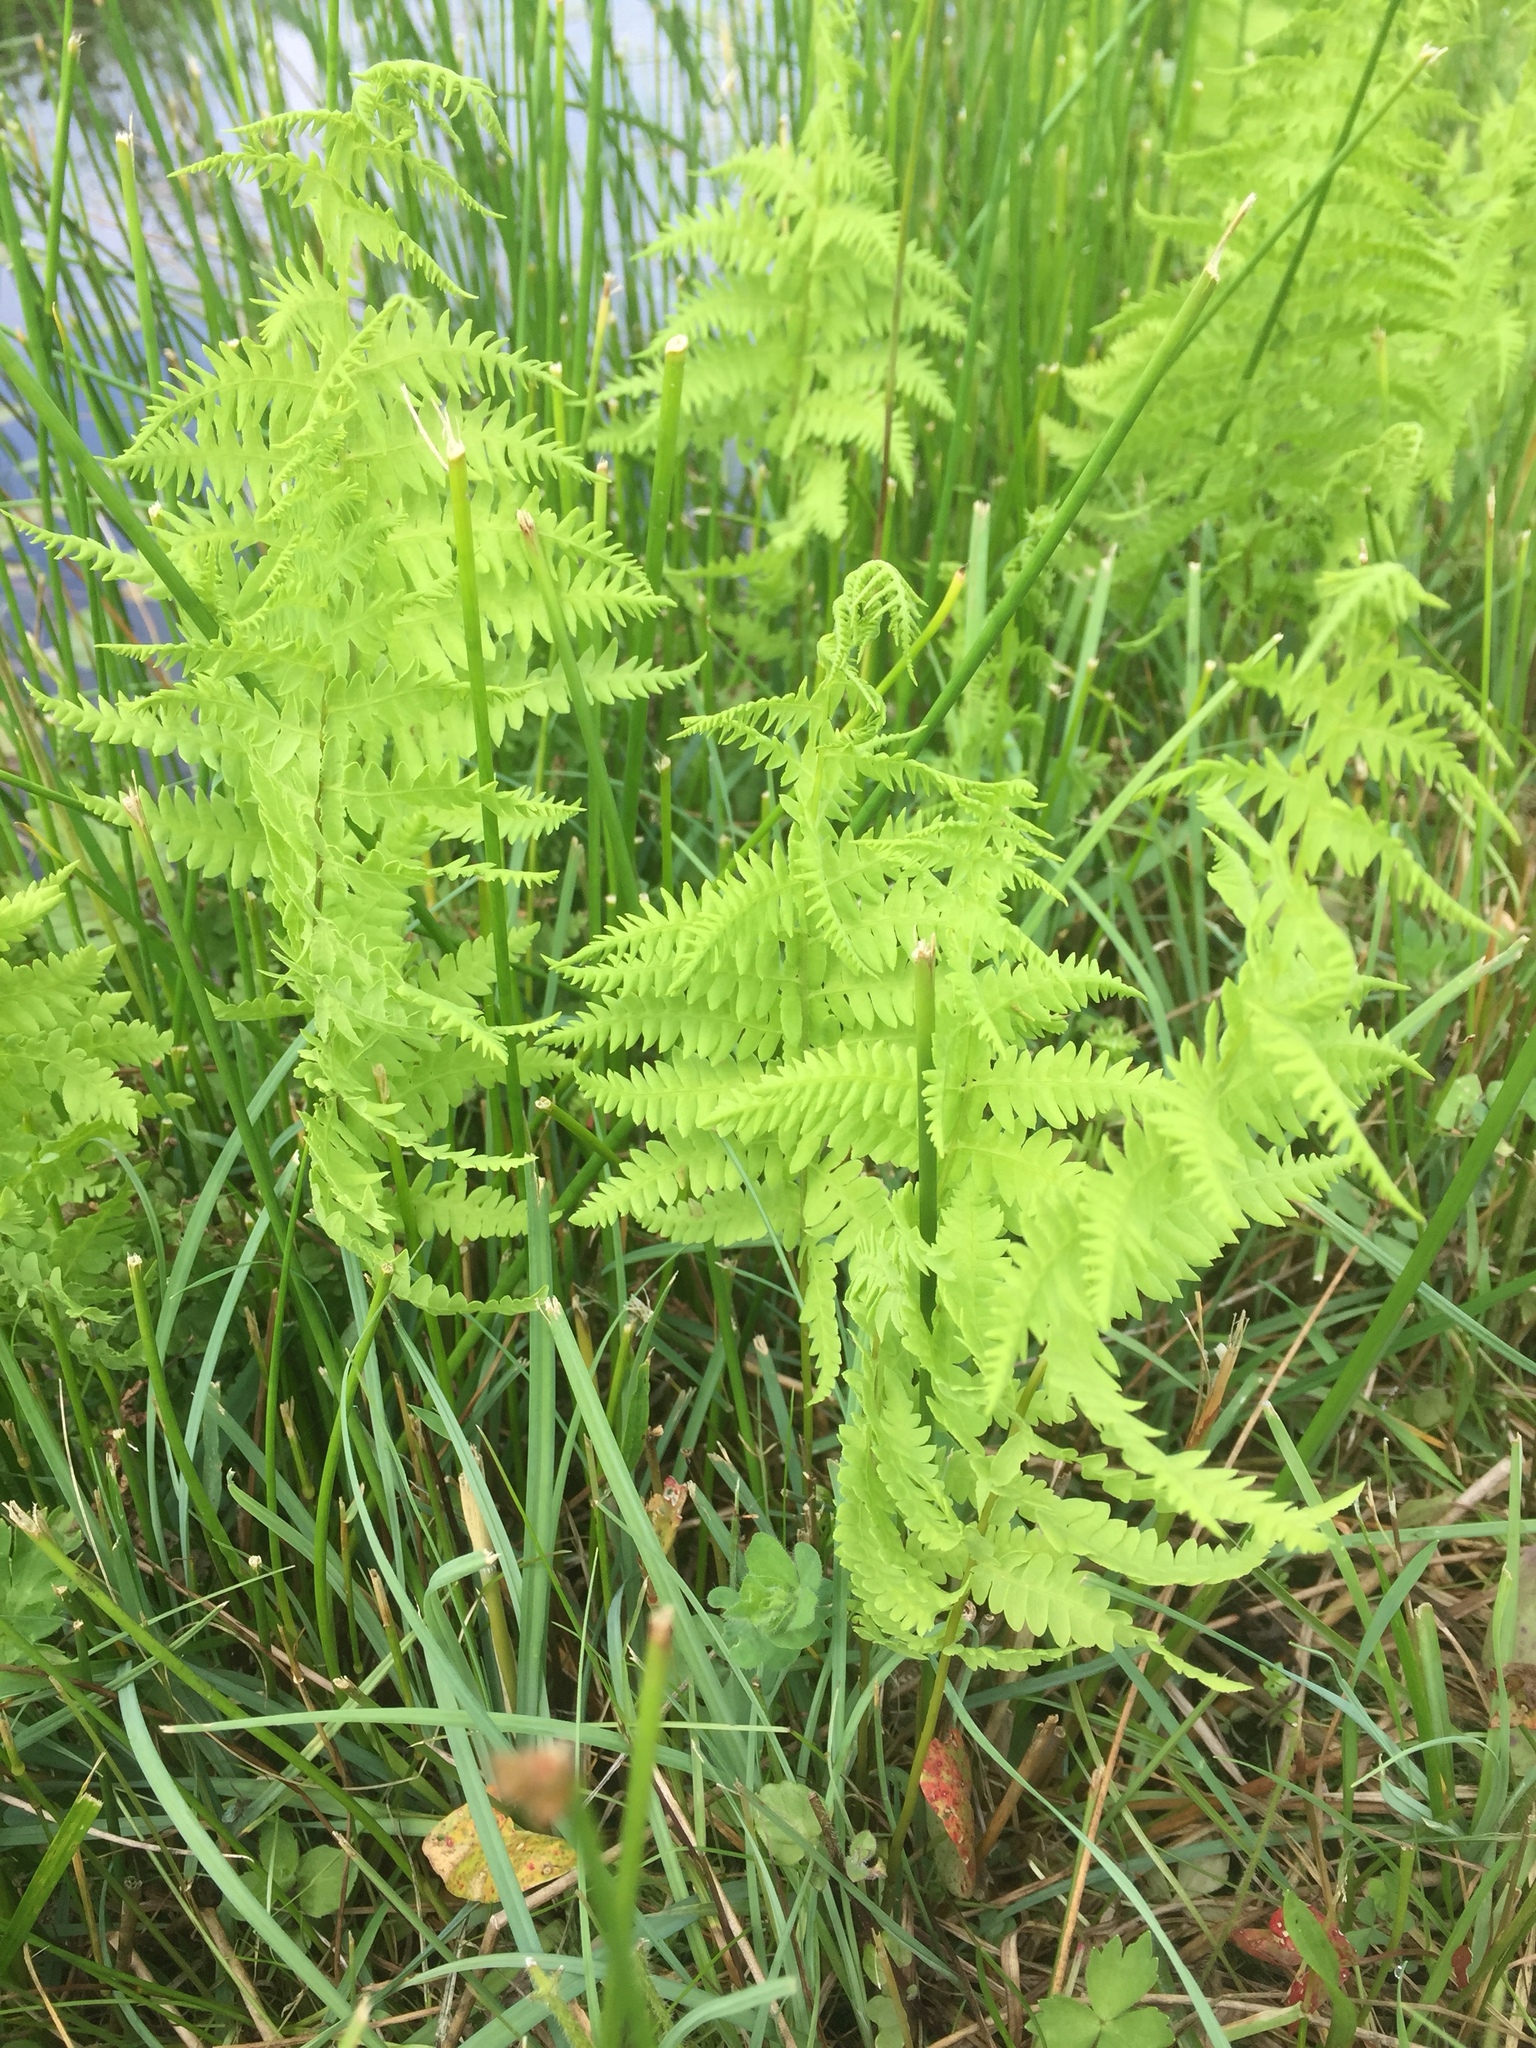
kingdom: Plantae
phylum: Tracheophyta
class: Polypodiopsida
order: Polypodiales
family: Thelypteridaceae
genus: Thelypteris
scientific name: Thelypteris palustris
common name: Marsh fern
